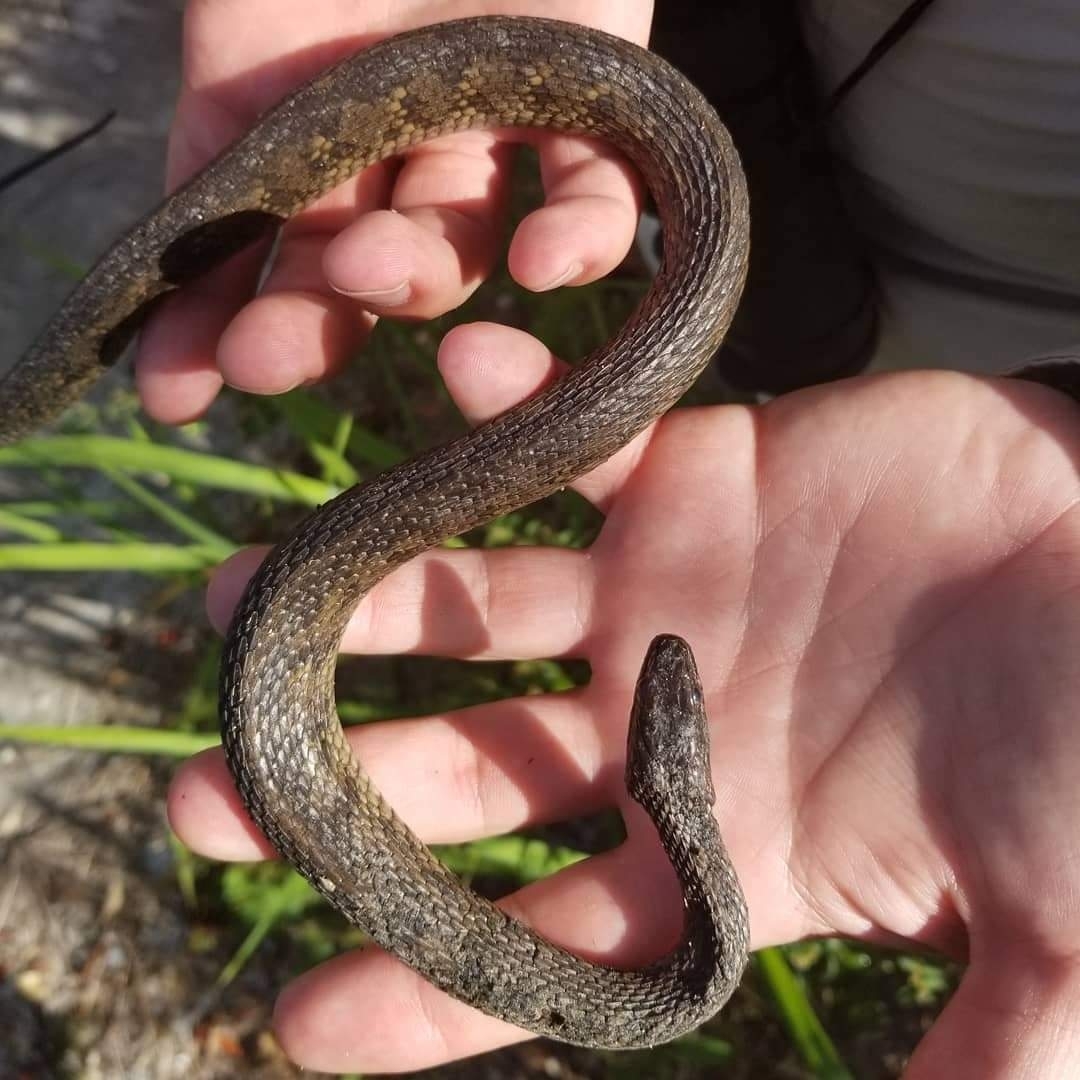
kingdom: Animalia
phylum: Chordata
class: Squamata
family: Colubridae
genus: Nerodia
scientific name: Nerodia clarkii
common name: Atlantic saltmarsh snake
